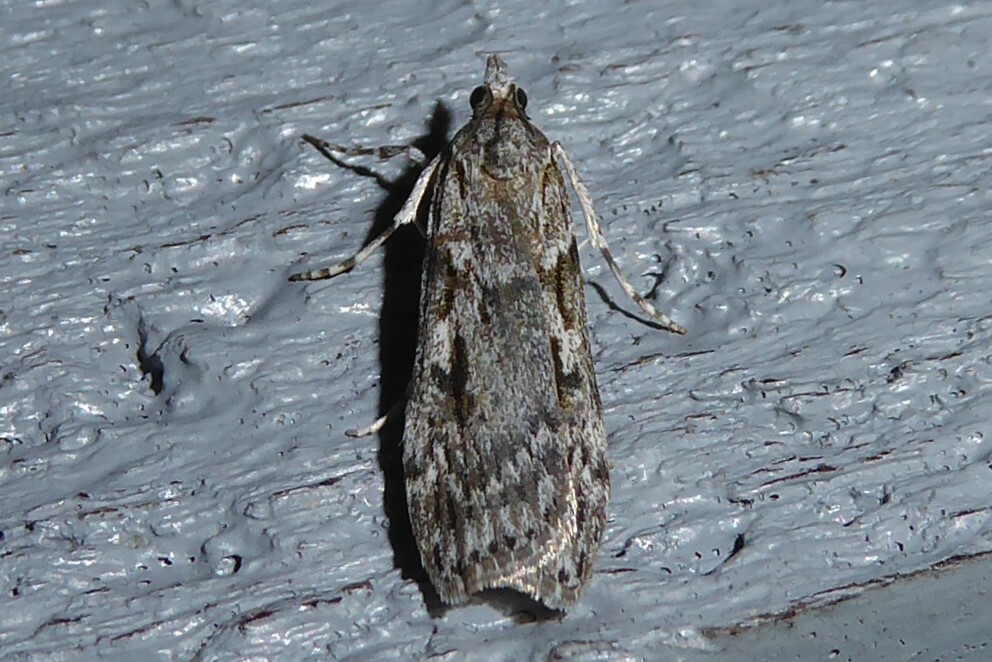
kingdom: Animalia
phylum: Arthropoda
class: Insecta
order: Lepidoptera
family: Crambidae
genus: Scoparia
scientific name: Scoparia halopis
